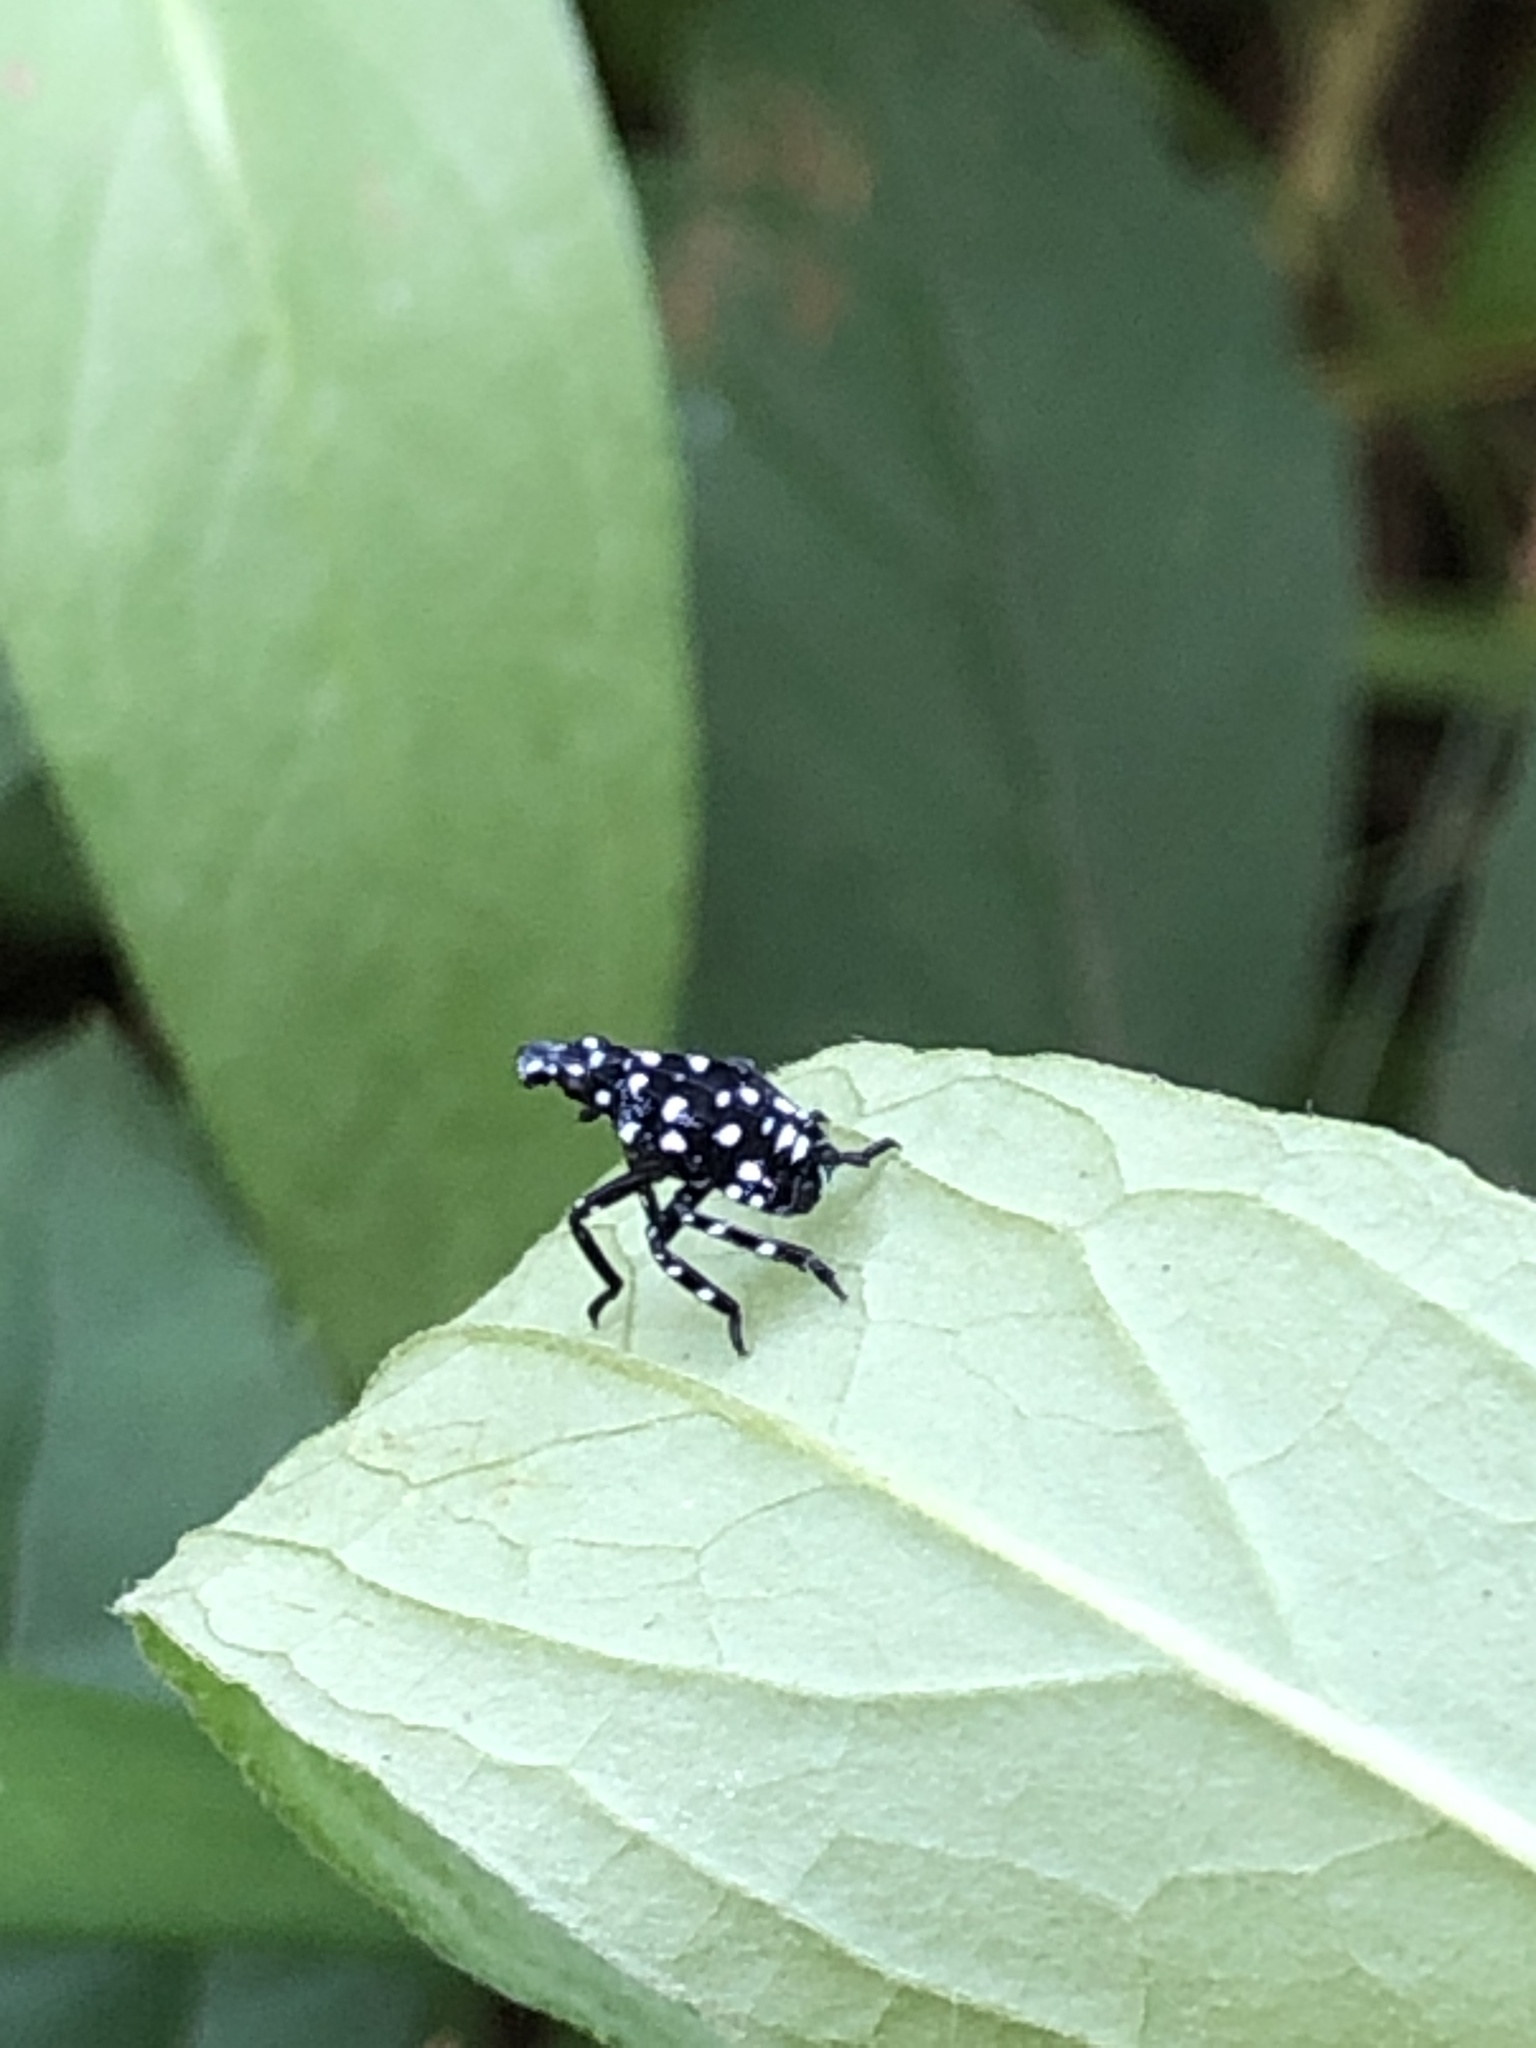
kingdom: Animalia
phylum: Arthropoda
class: Insecta
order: Hemiptera
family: Fulgoridae
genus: Lycorma
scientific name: Lycorma delicatula
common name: Spotted lanternfly
